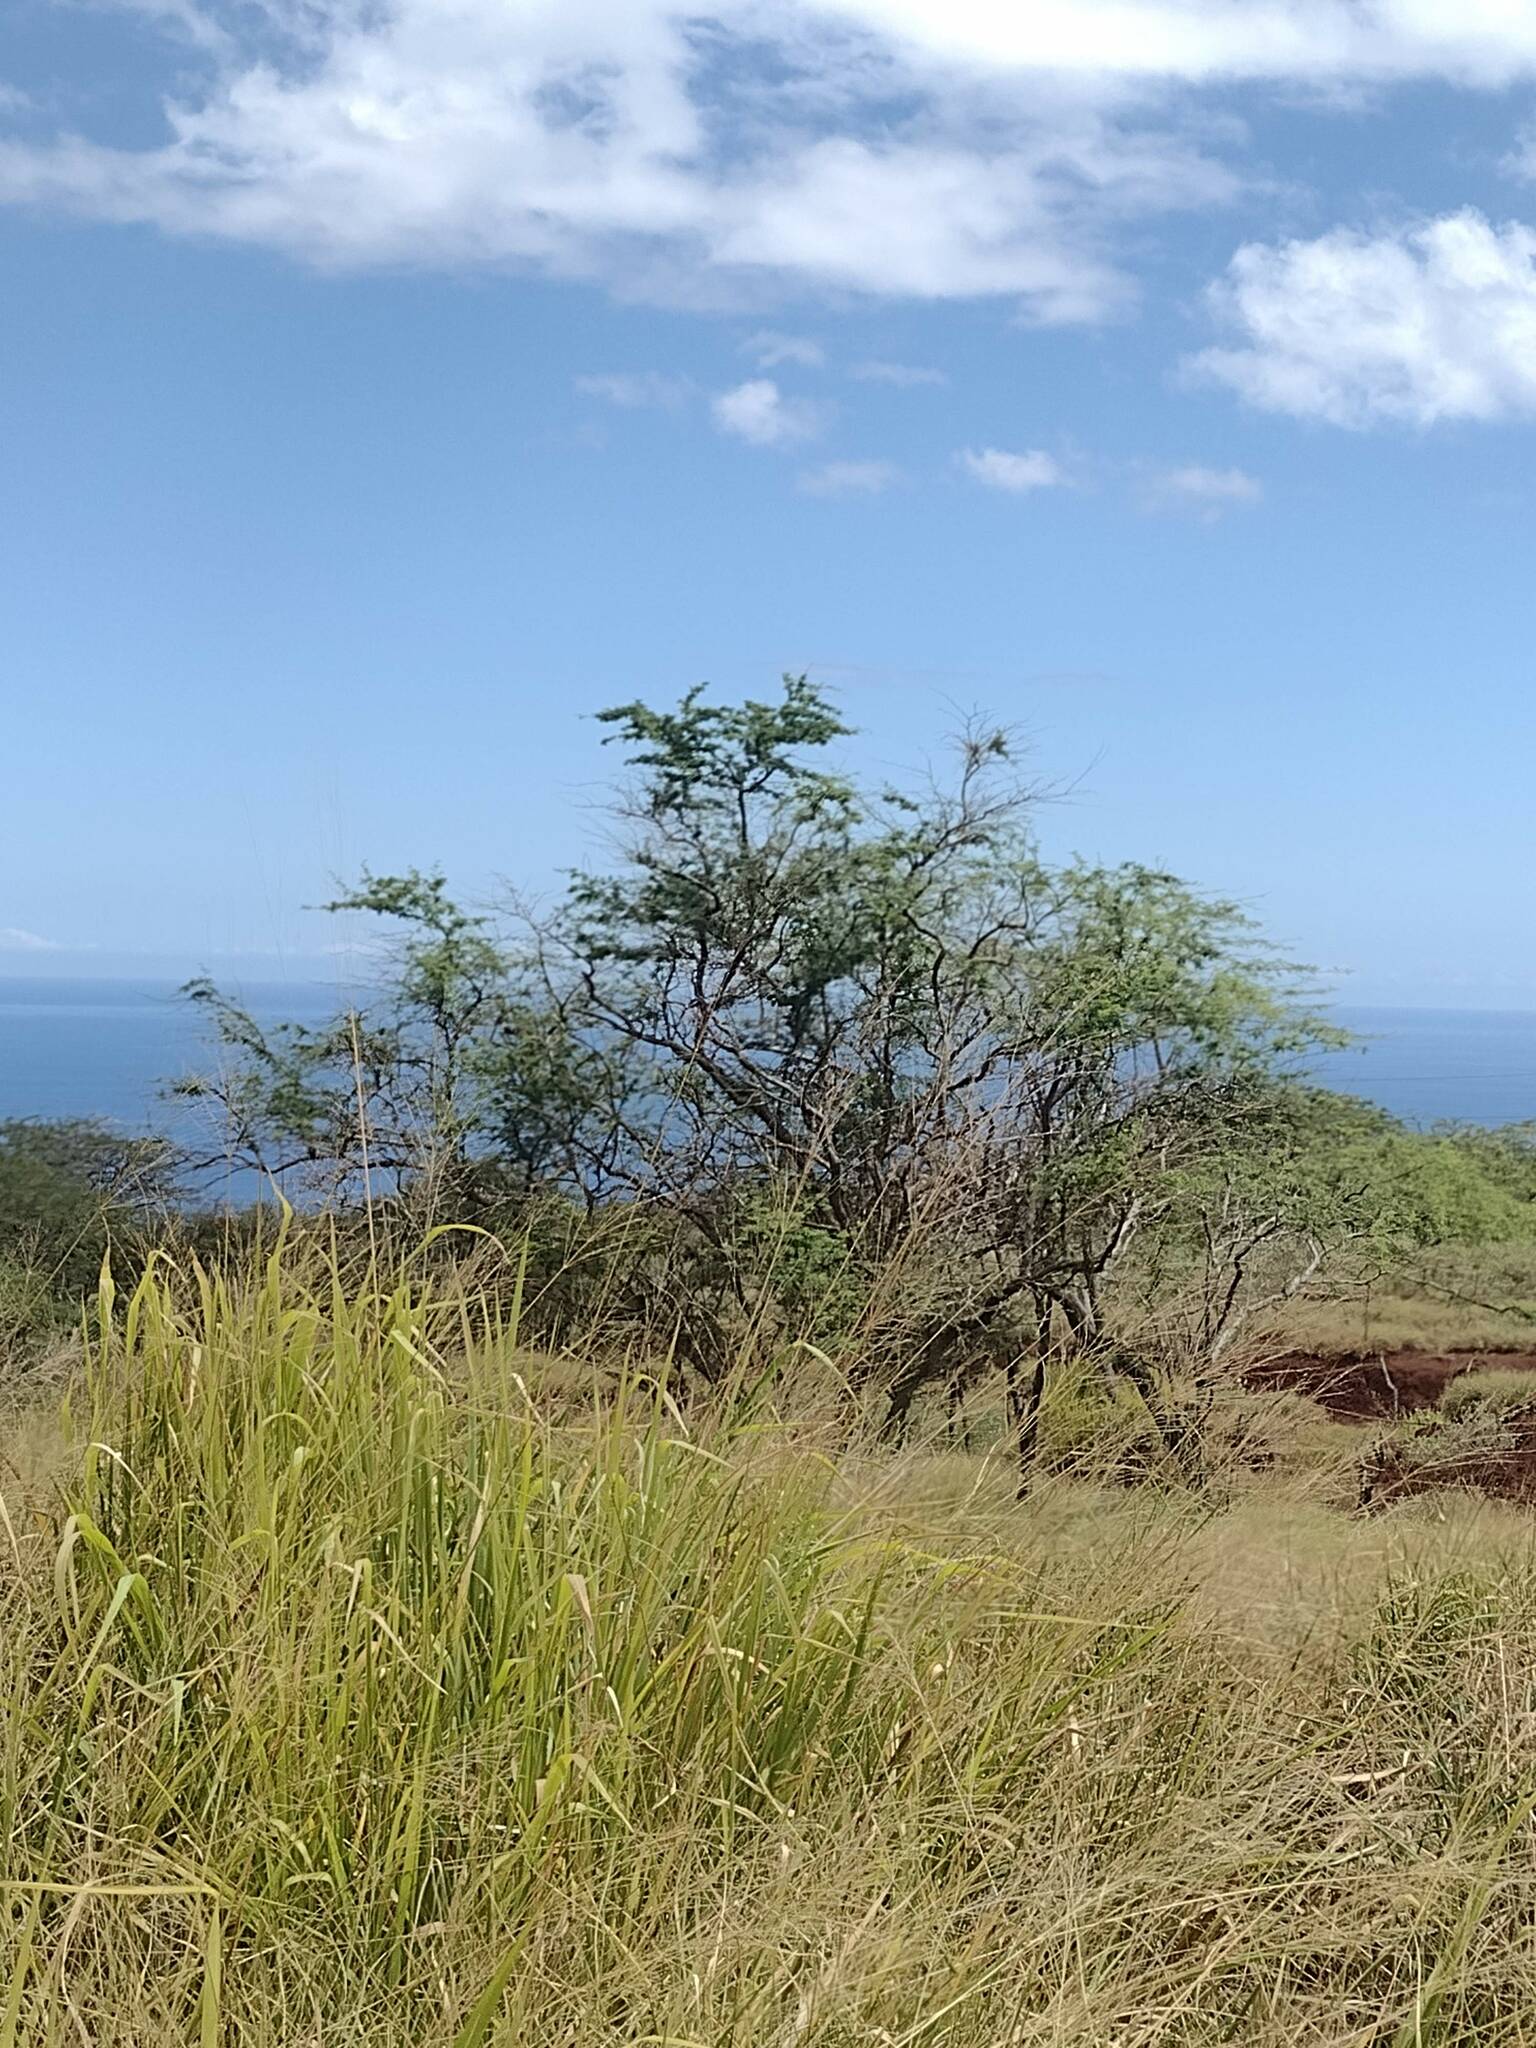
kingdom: Plantae
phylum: Tracheophyta
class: Magnoliopsida
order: Fabales
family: Fabaceae
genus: Prosopis
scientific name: Prosopis pallida
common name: Mesquite
